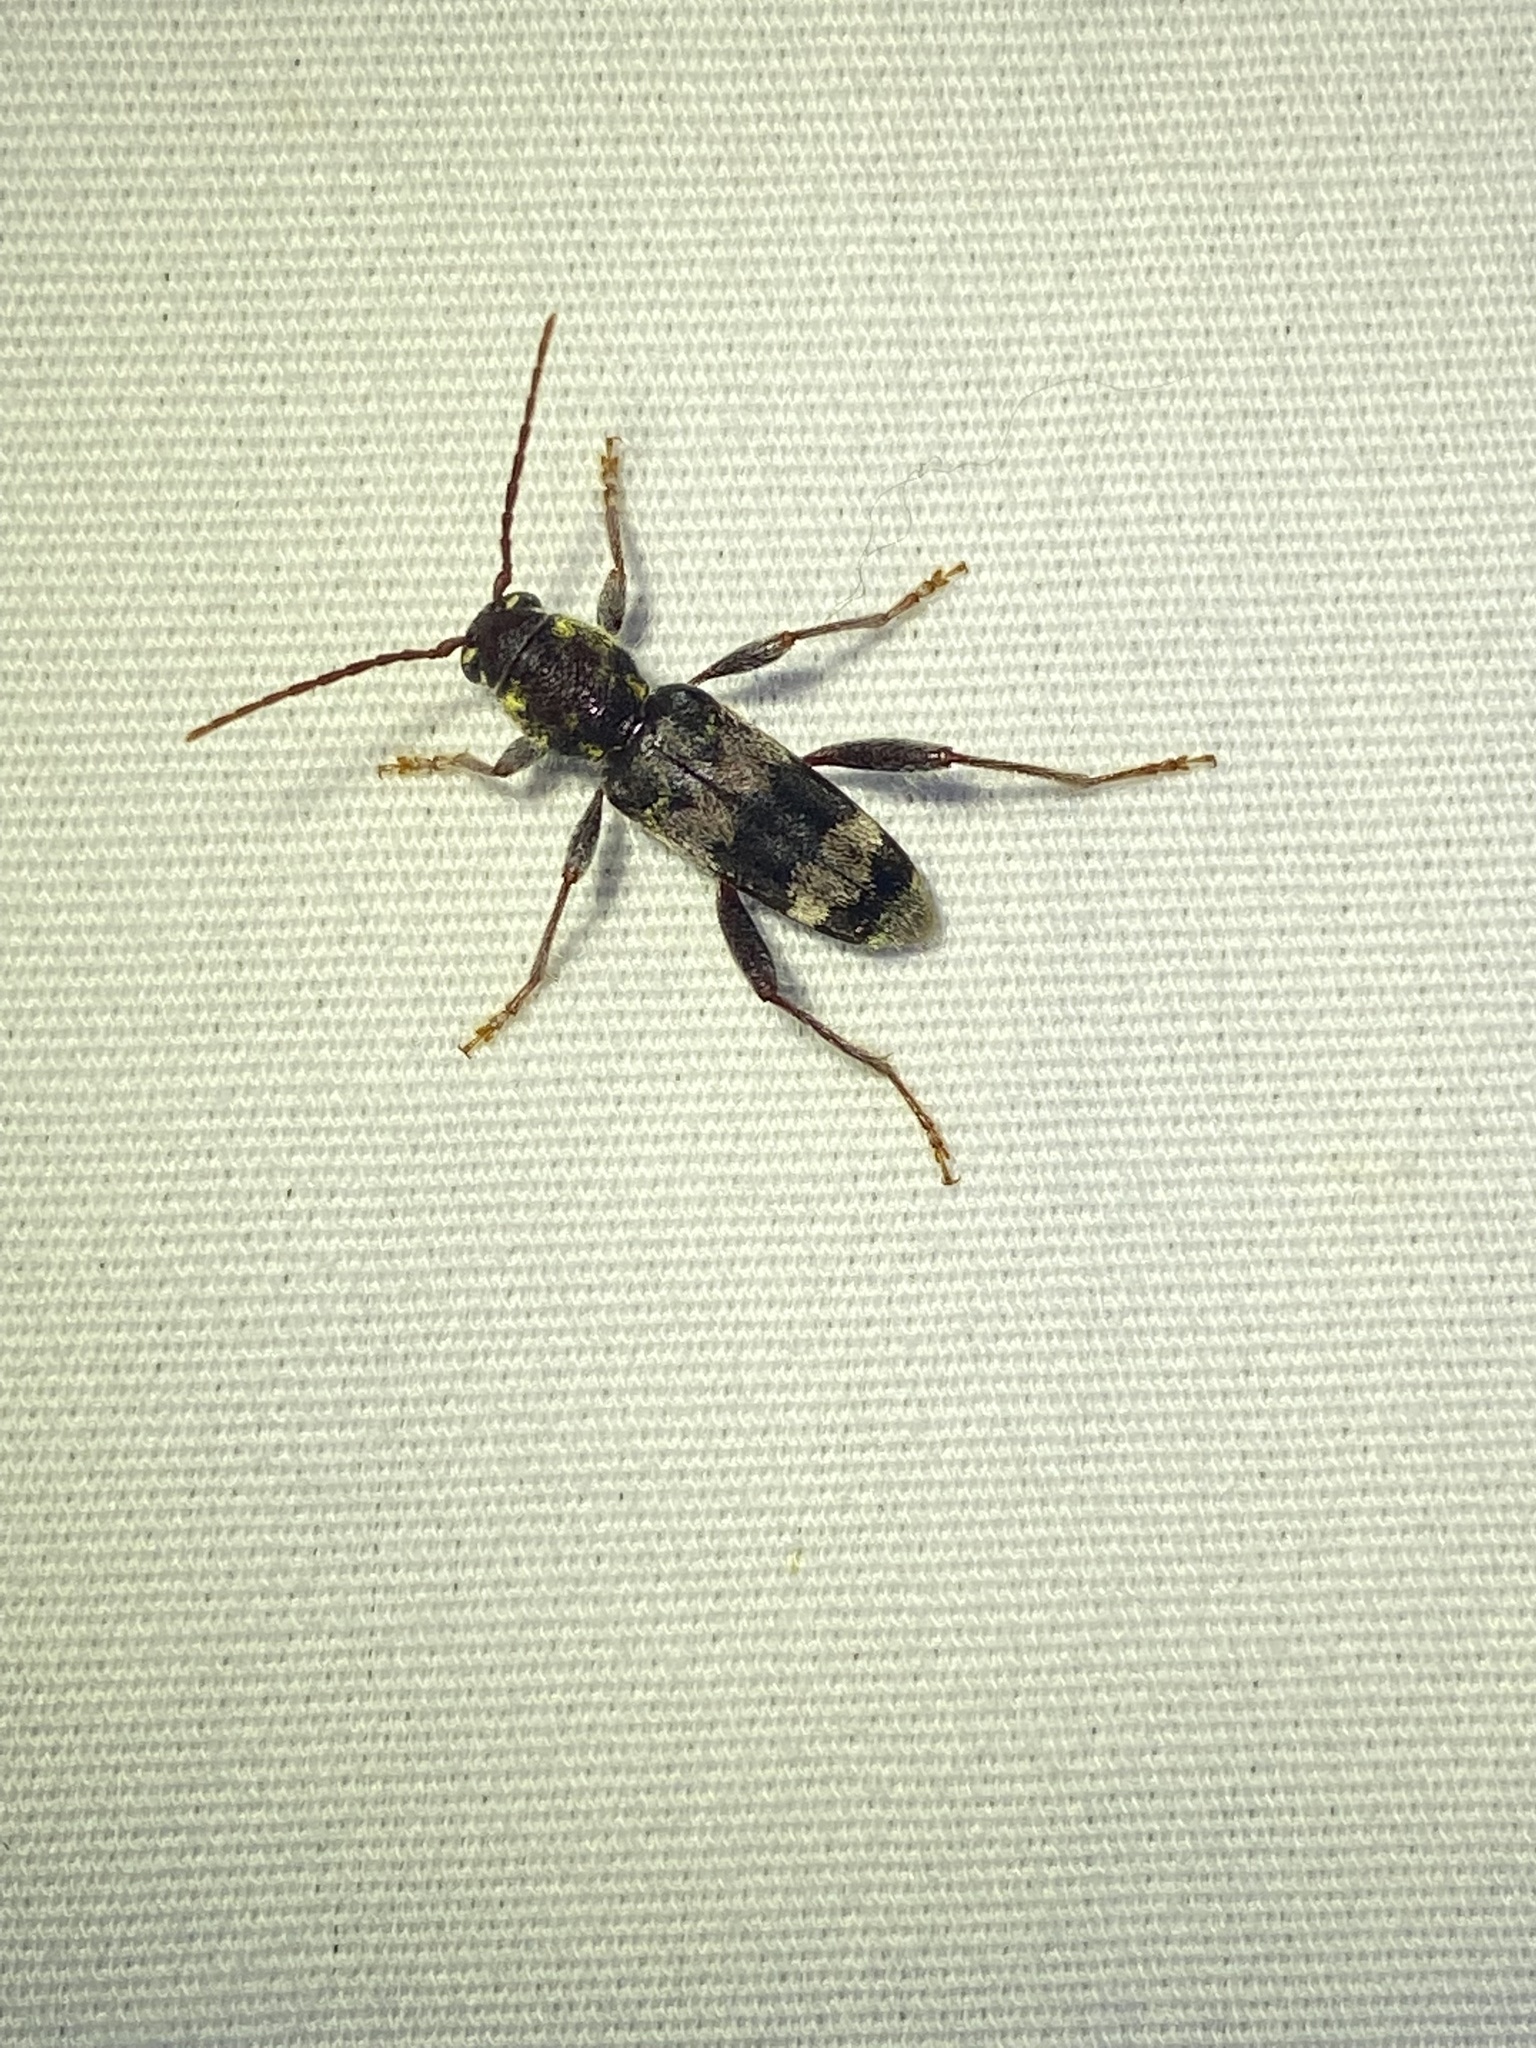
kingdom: Animalia
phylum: Arthropoda
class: Insecta
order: Coleoptera
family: Cerambycidae
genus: Xylotrechus
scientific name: Xylotrechus colonus
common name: Long-horned beetle
